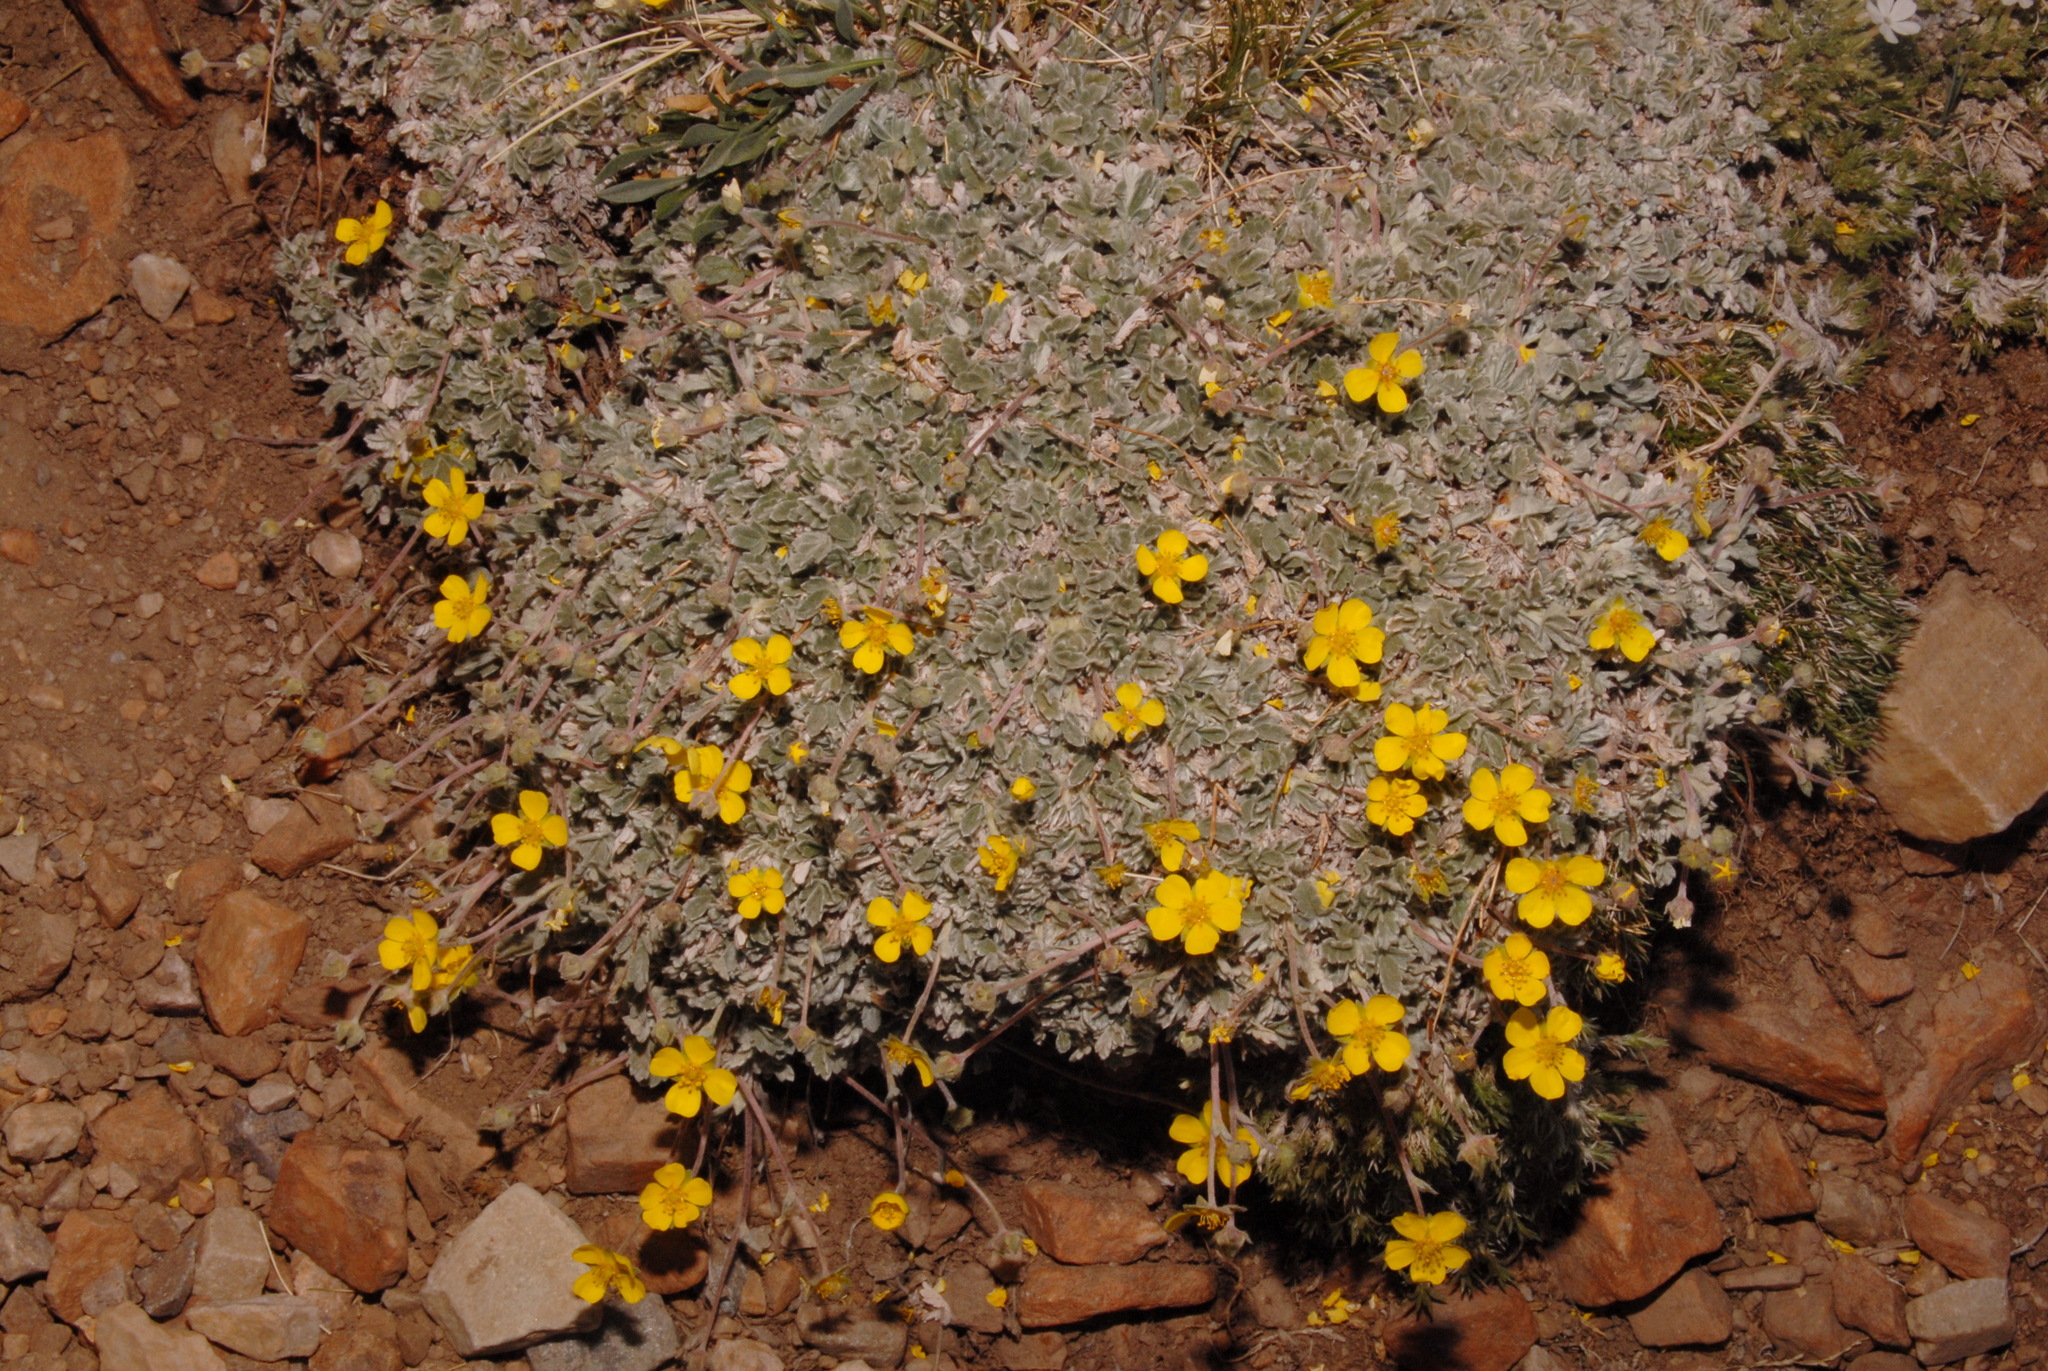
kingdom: Plantae
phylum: Tracheophyta
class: Magnoliopsida
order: Rosales
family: Rosaceae
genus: Potentilla
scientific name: Potentilla holmgrenii
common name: Holmgren's cinquefoil
